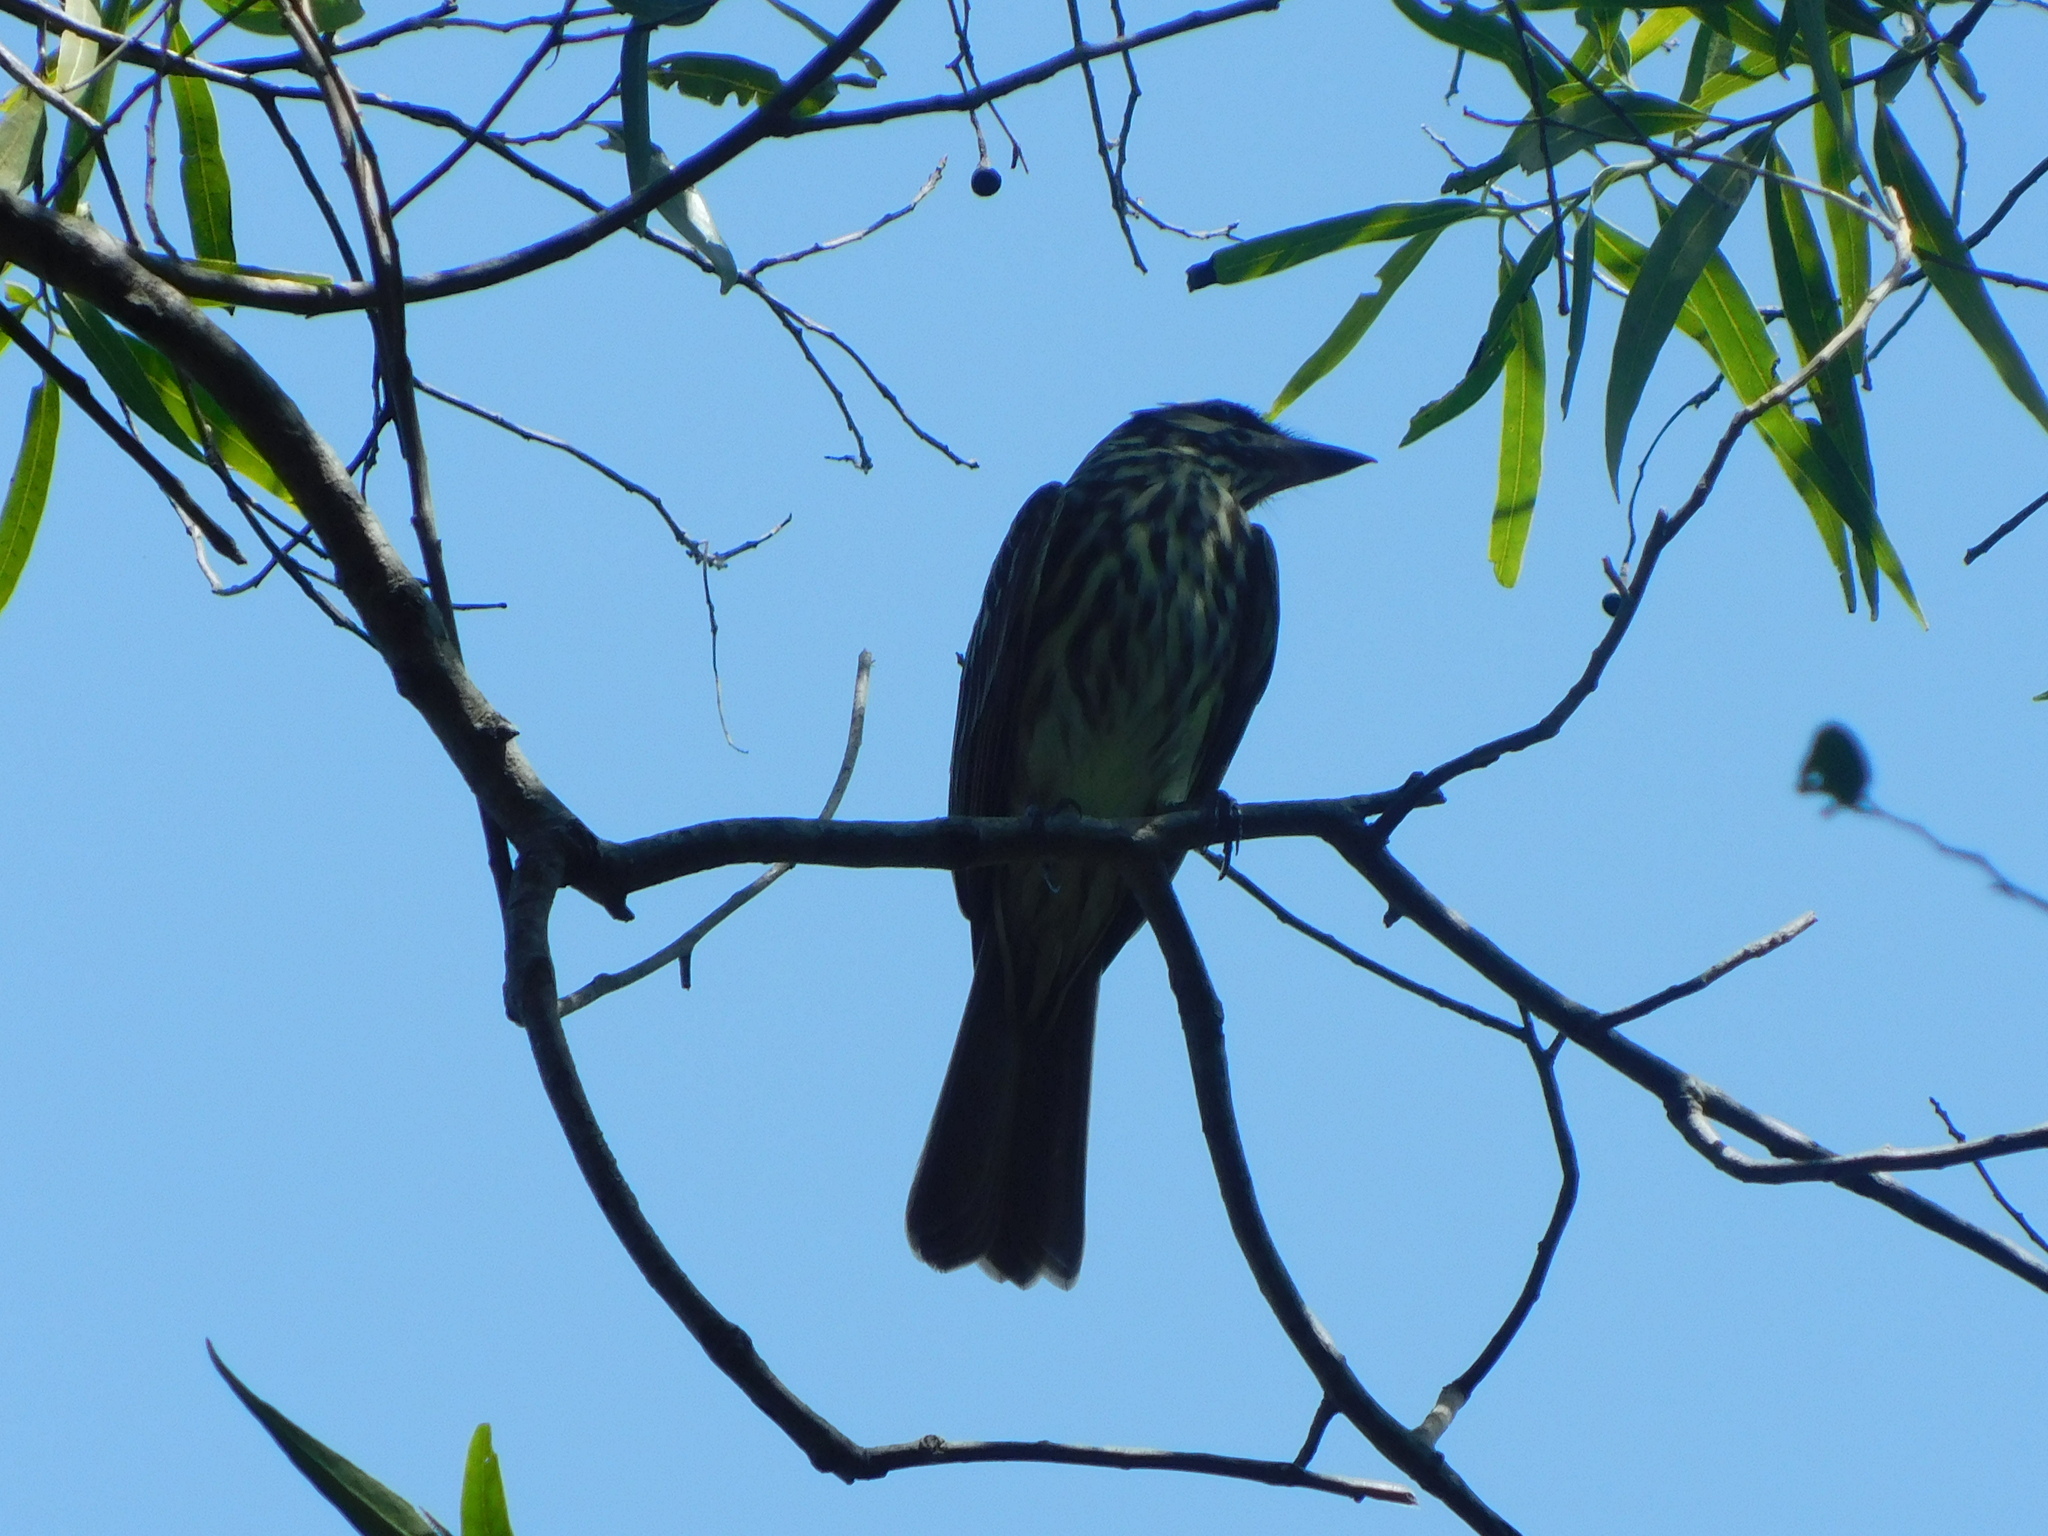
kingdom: Animalia
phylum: Chordata
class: Aves
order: Passeriformes
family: Tyrannidae
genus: Myiodynastes
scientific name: Myiodynastes maculatus
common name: Streaked flycatcher
